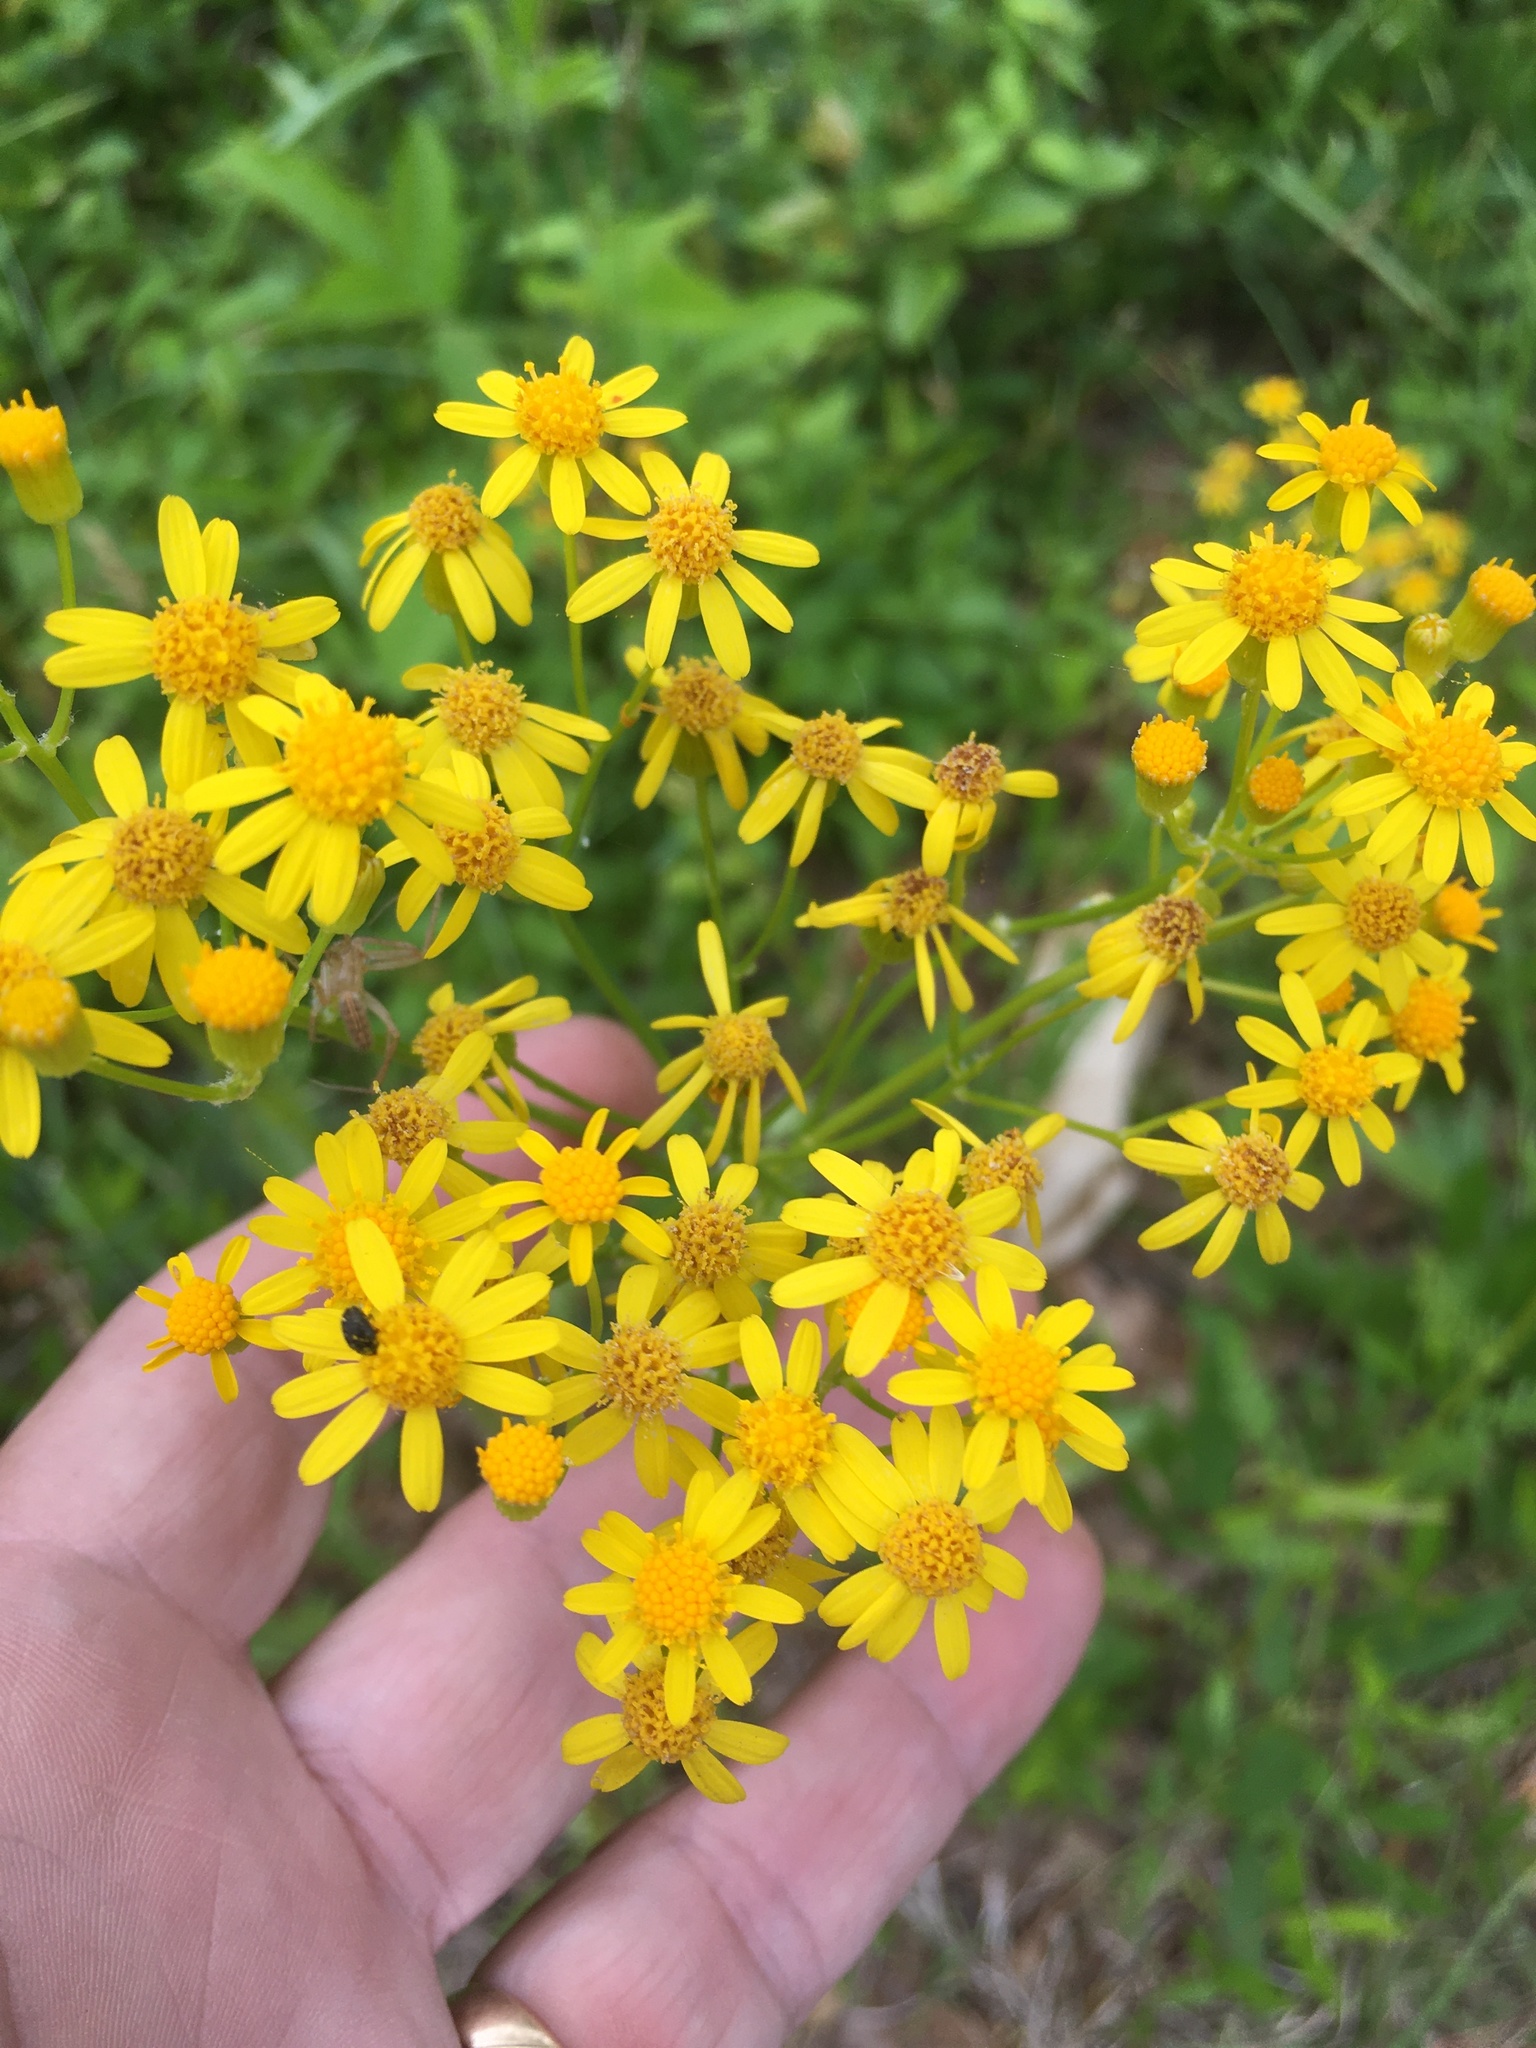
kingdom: Plantae
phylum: Tracheophyta
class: Magnoliopsida
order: Asterales
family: Asteraceae
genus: Packera
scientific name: Packera anonyma
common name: Small ragwort
